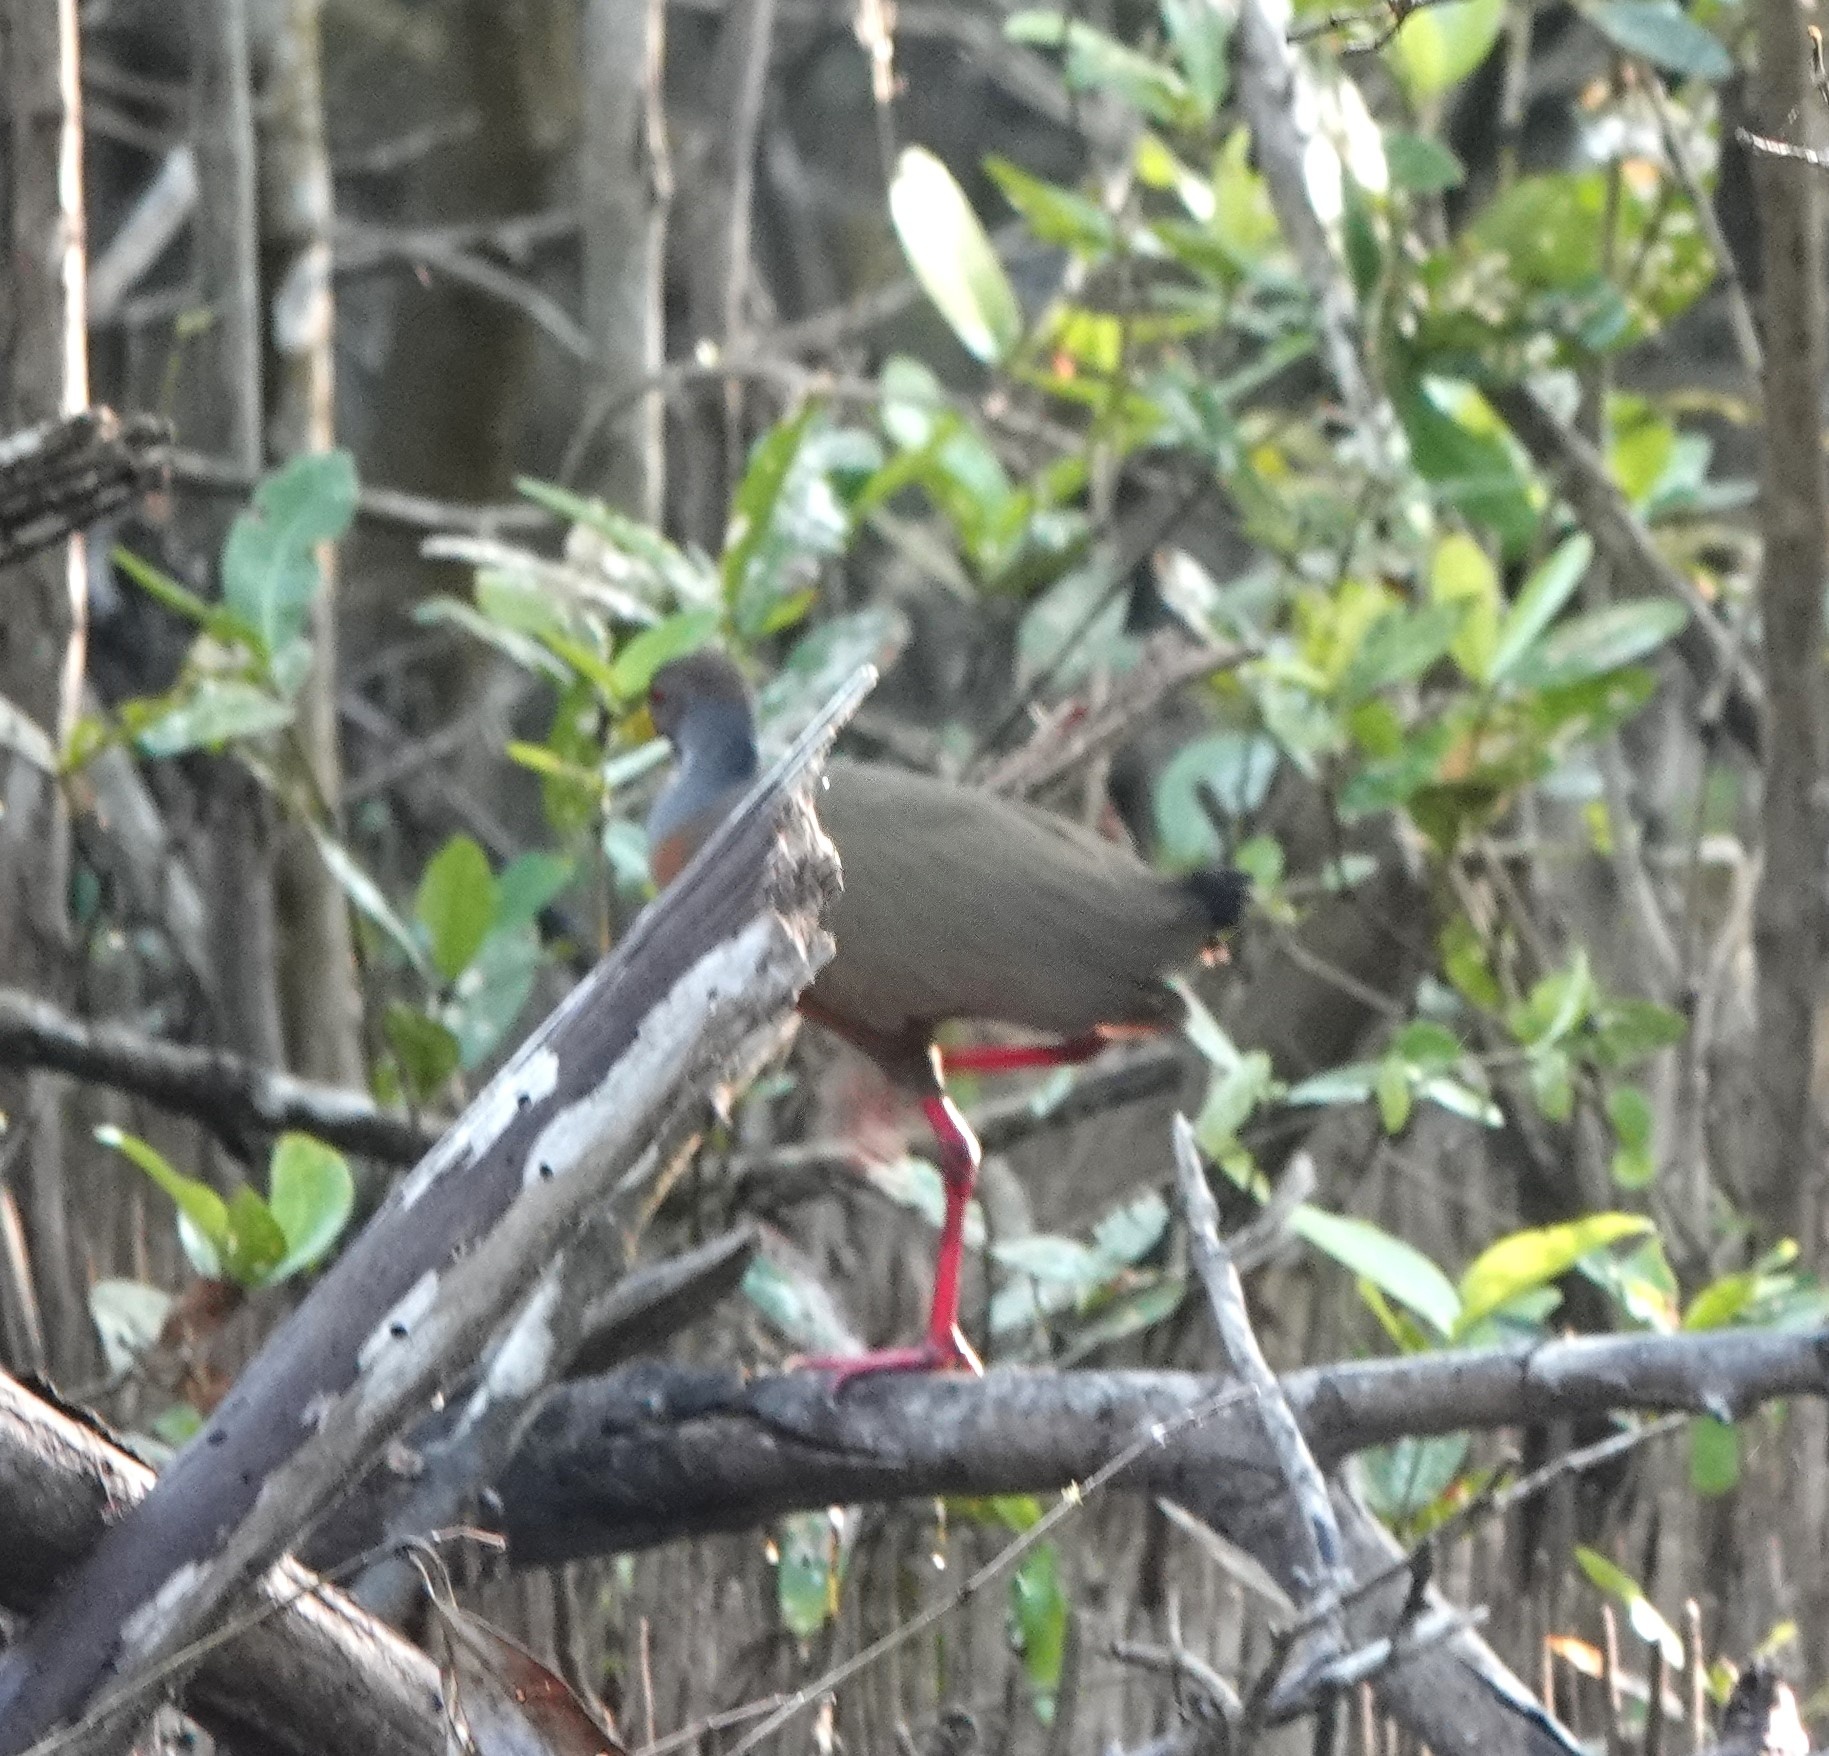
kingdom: Animalia
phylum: Chordata
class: Aves
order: Gruiformes
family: Rallidae
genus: Aramides
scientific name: Aramides cajanea
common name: Gray-necked wood-rail
